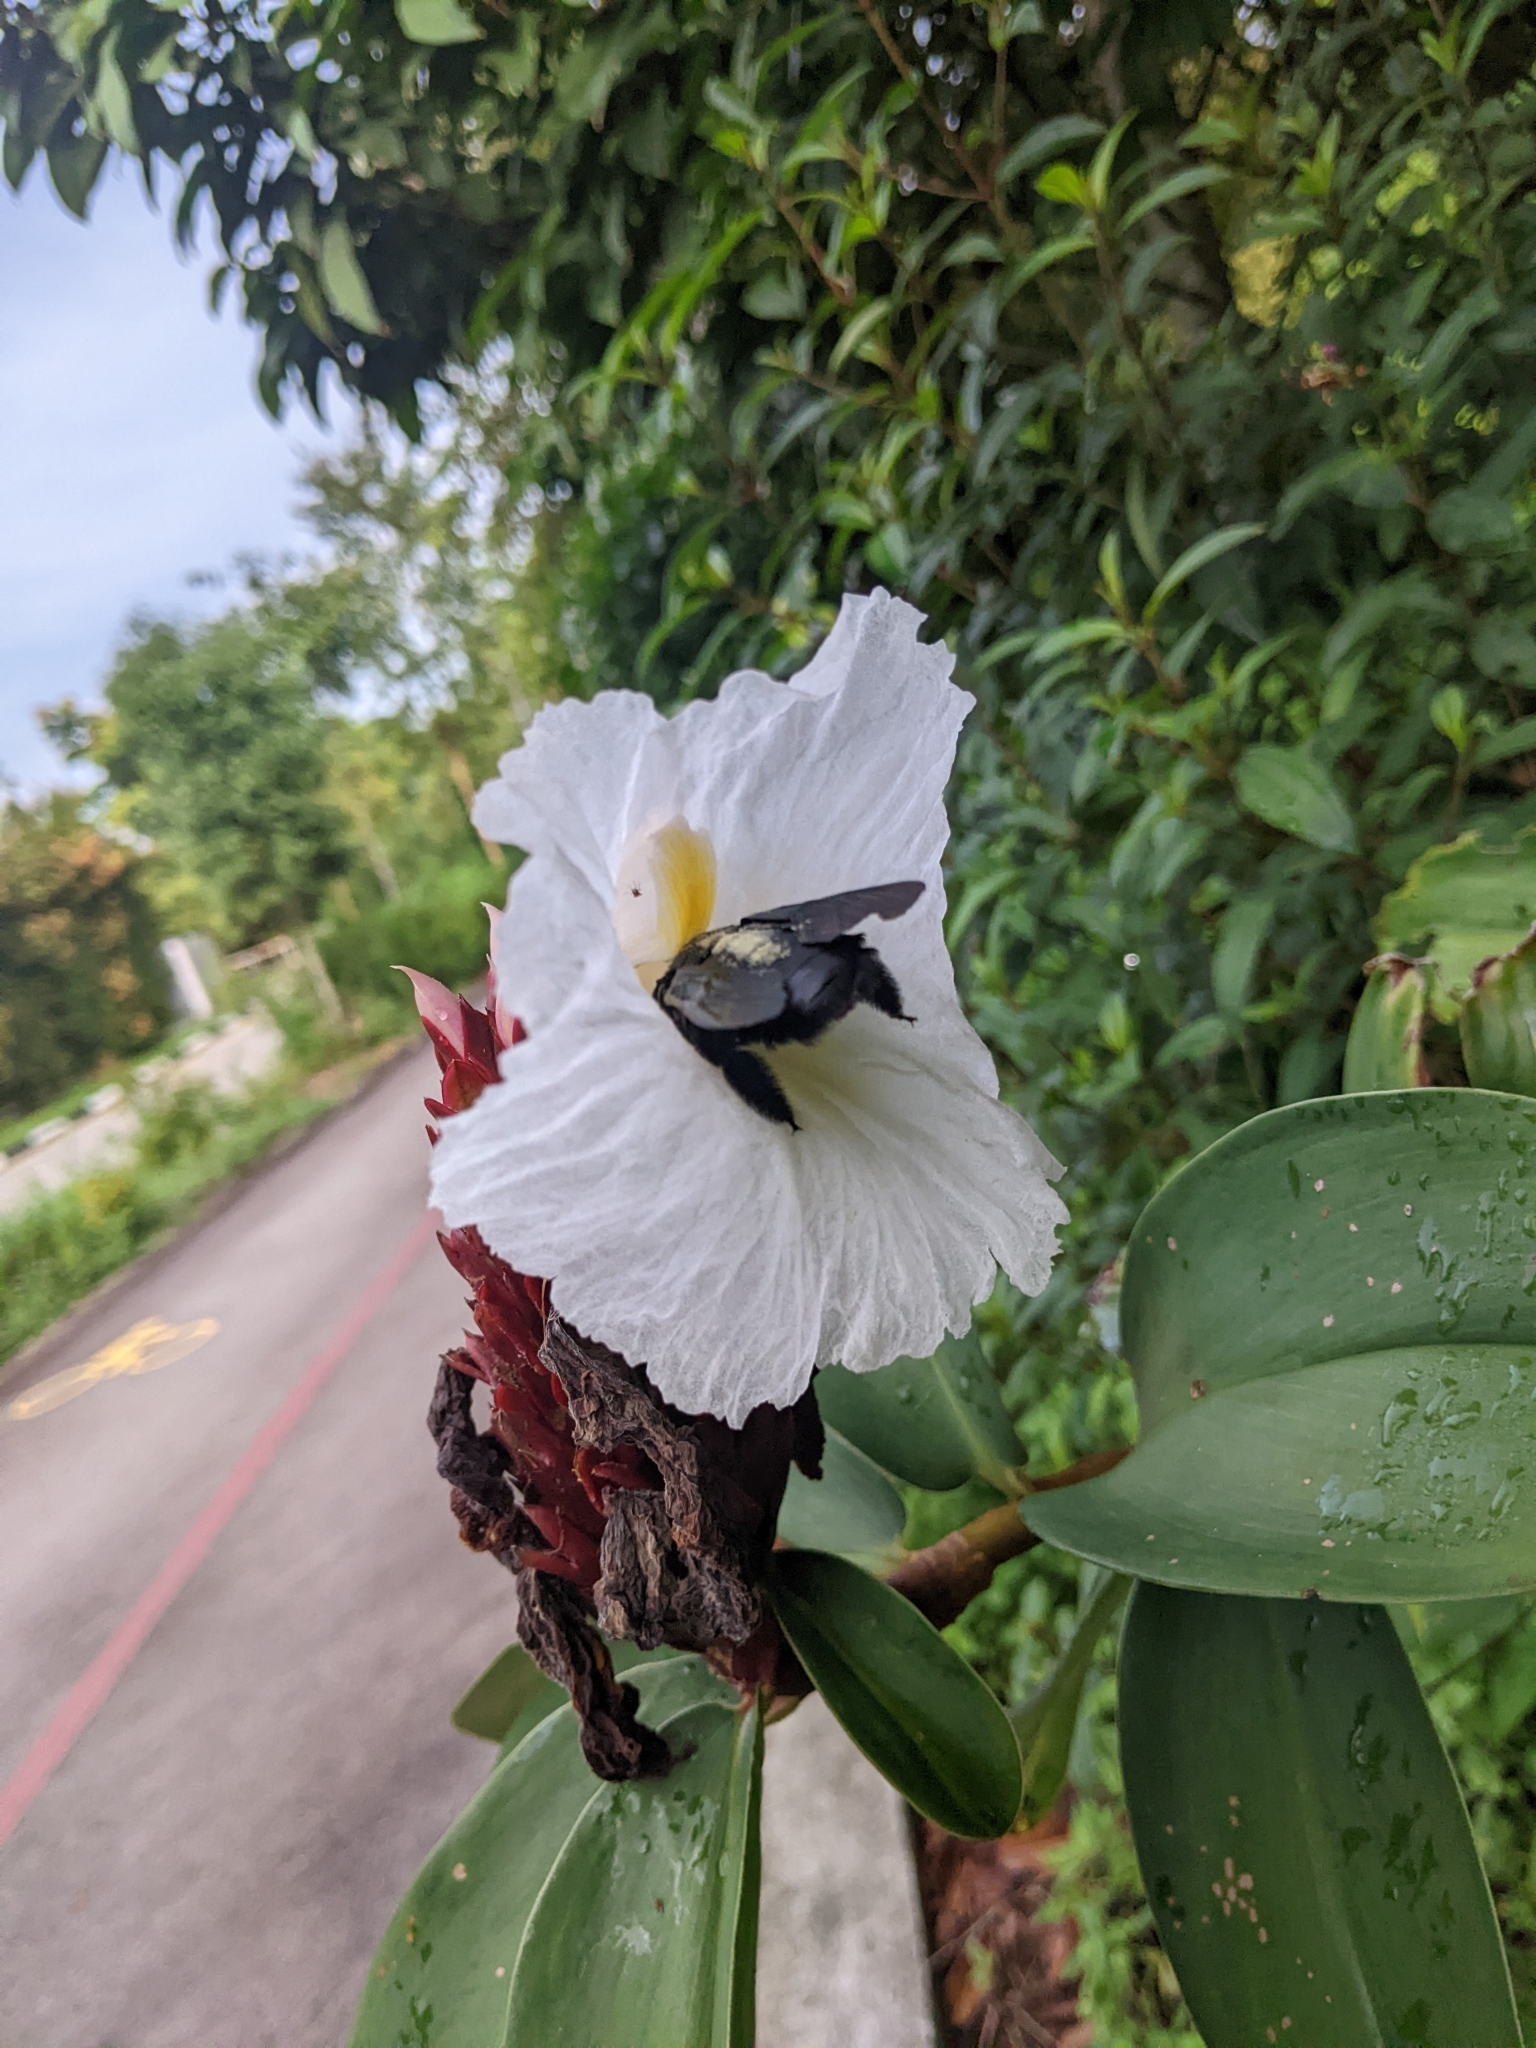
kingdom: Animalia
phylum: Arthropoda
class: Insecta
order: Hymenoptera
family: Apidae
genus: Xylocopa
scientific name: Xylocopa latipes
